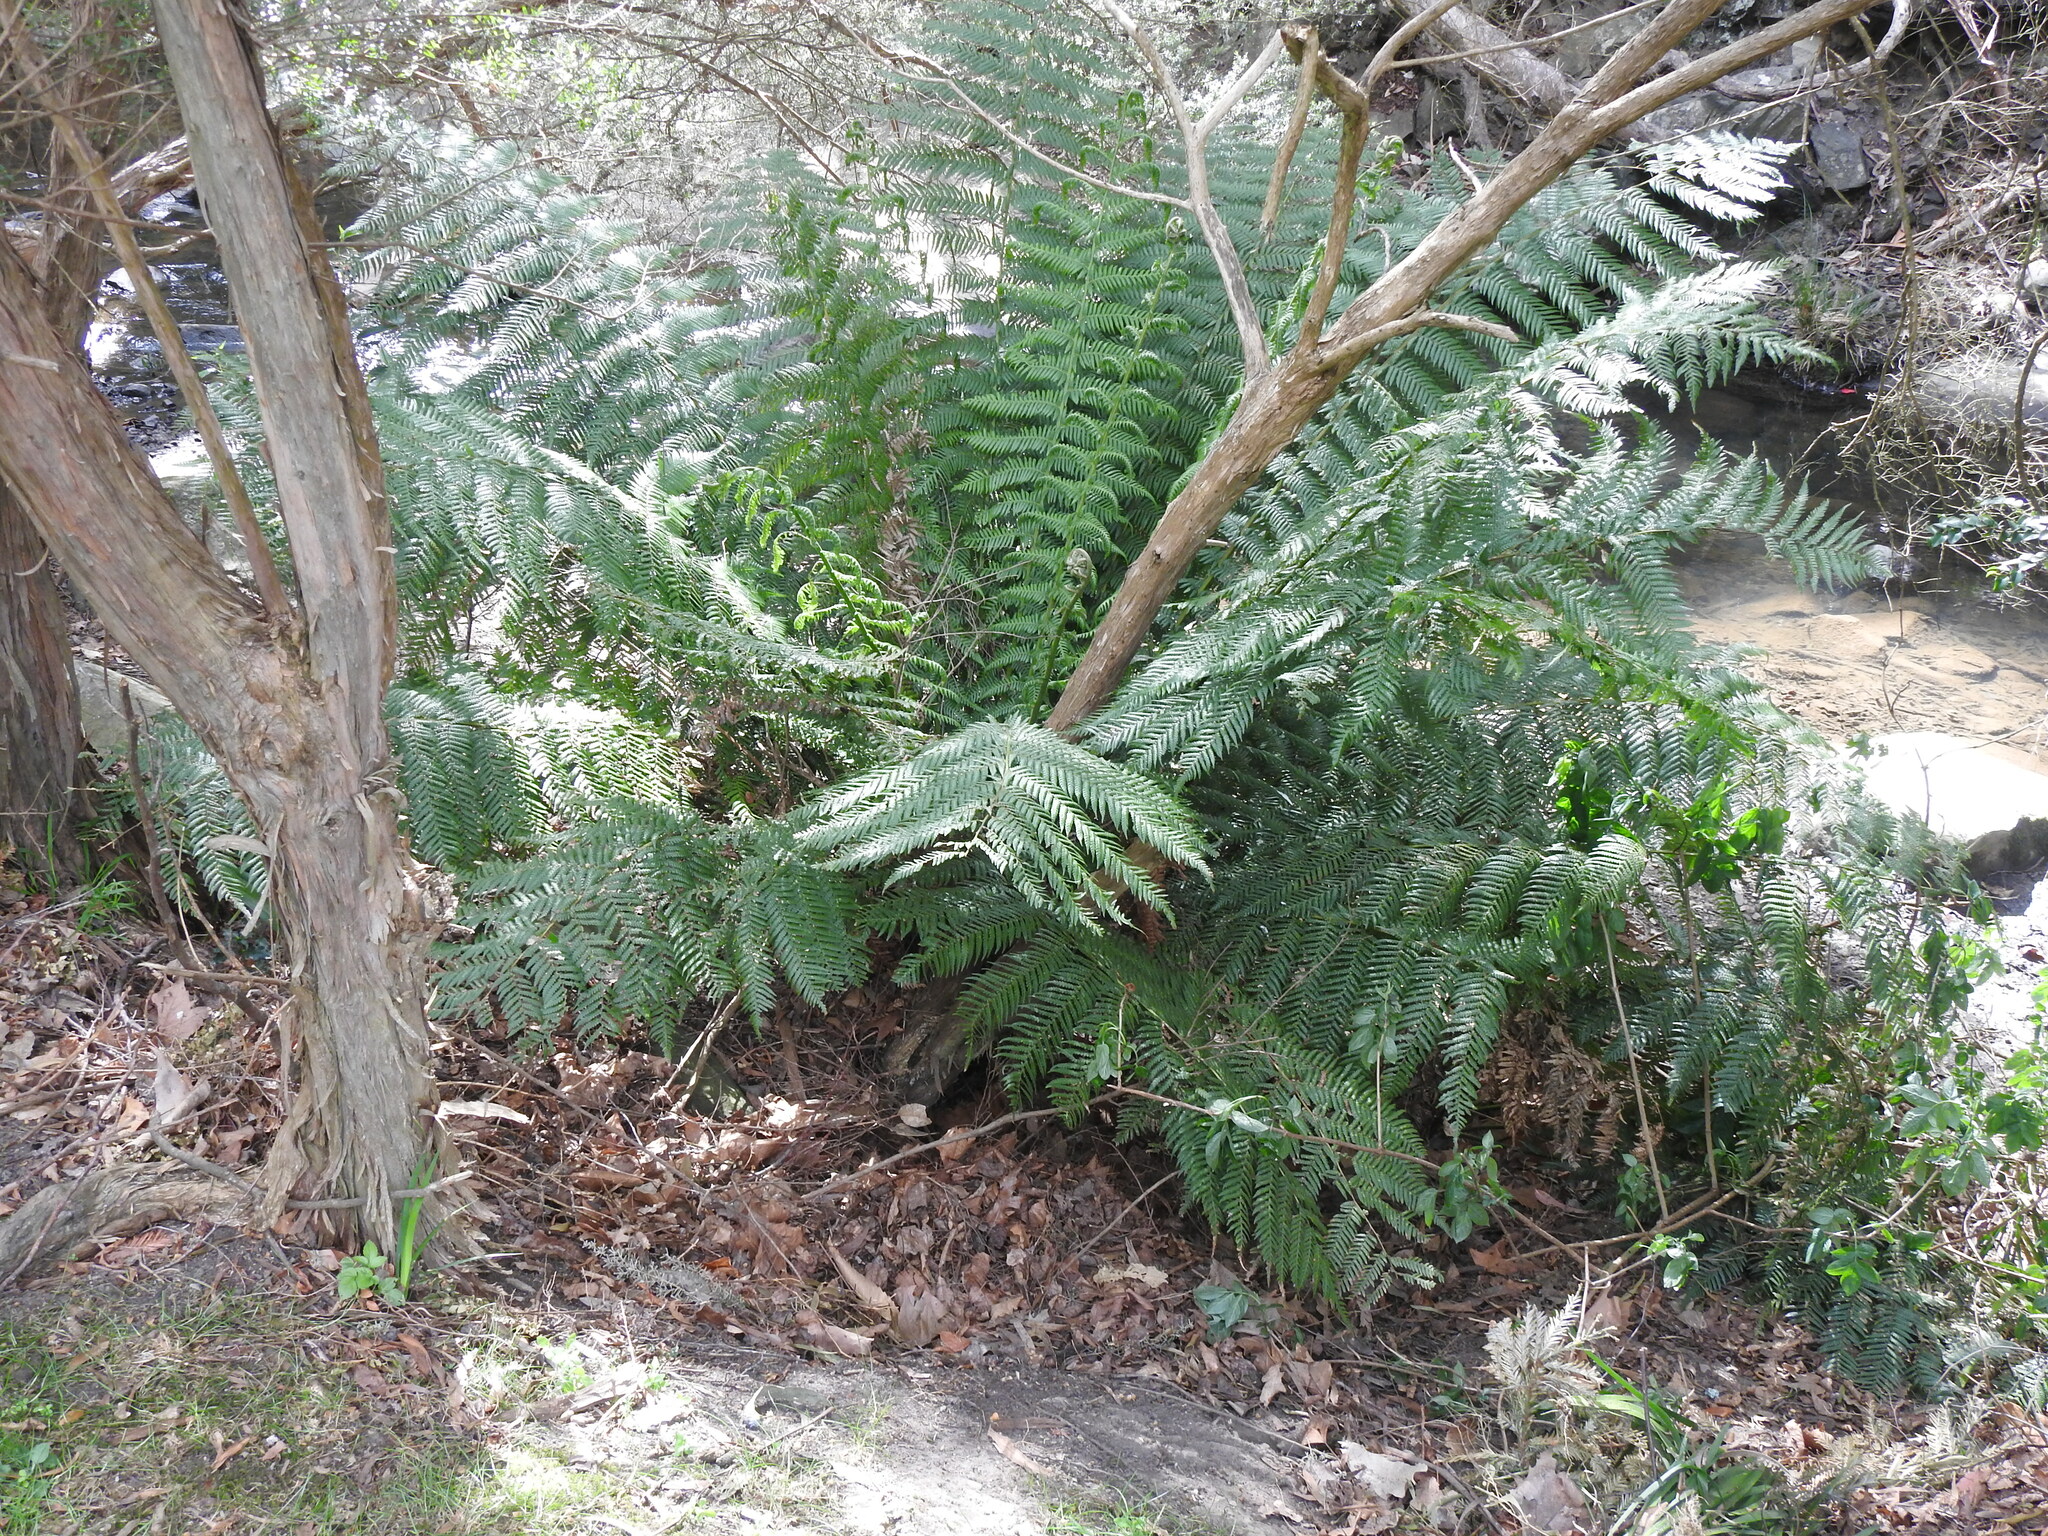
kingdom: Plantae
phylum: Tracheophyta
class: Polypodiopsida
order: Cyatheales
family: Dicksoniaceae
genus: Dicksonia
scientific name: Dicksonia antarctica
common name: Australian treefern
